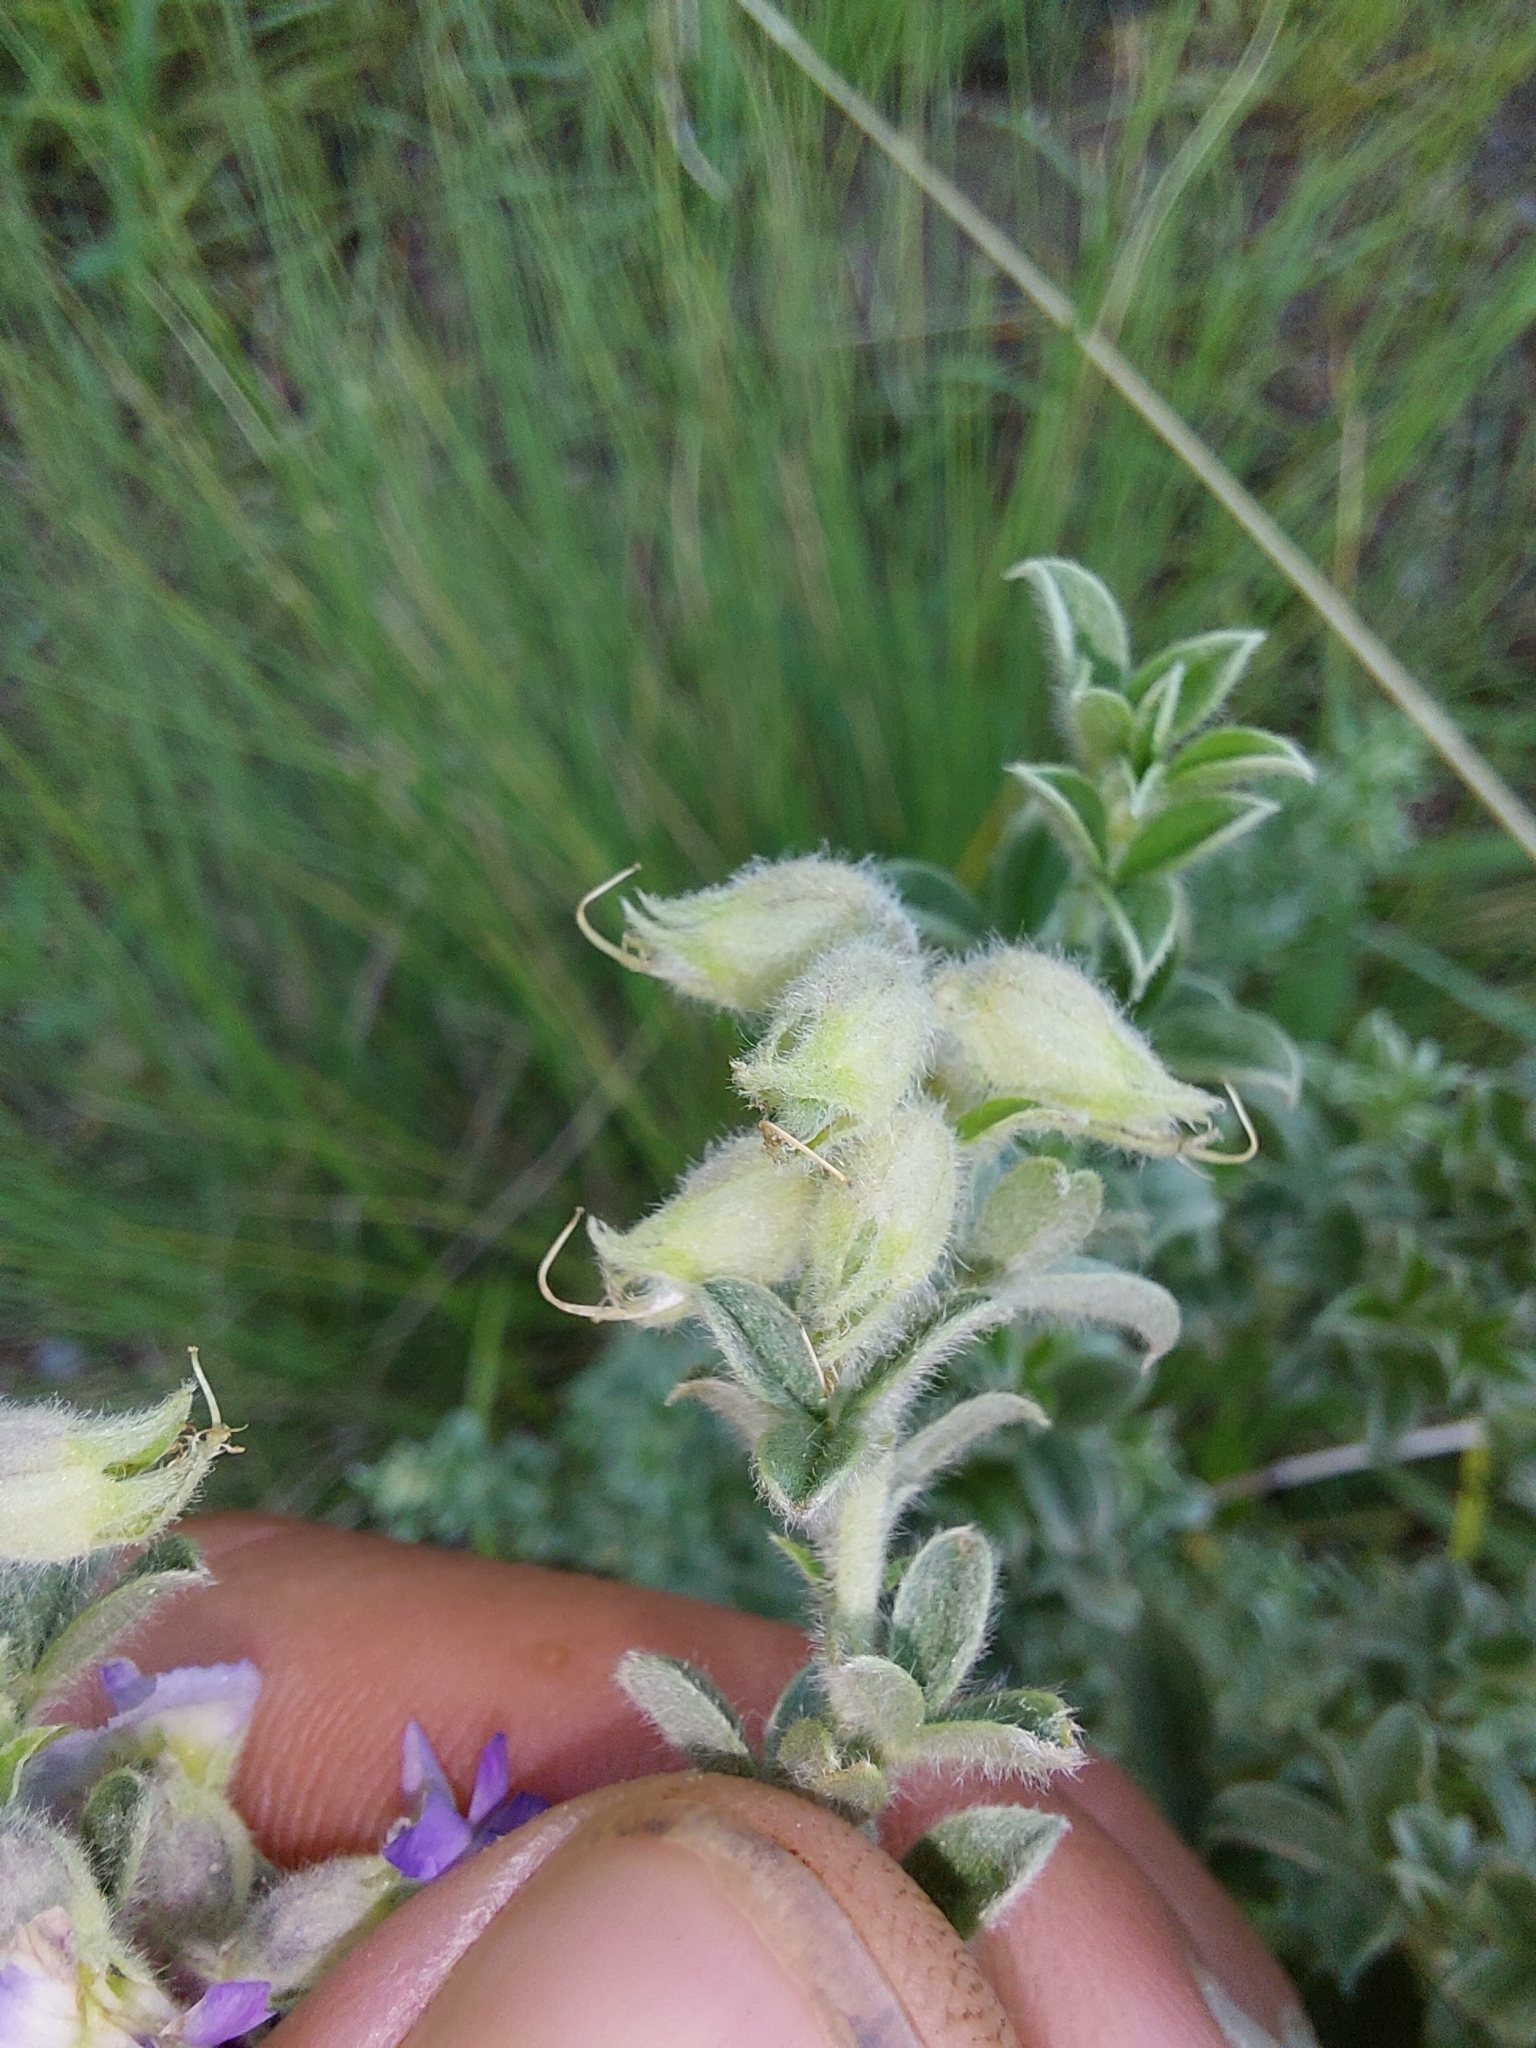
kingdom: Plantae
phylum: Tracheophyta
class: Magnoliopsida
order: Fabales
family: Fabaceae
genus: Lotononis
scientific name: Lotononis lotononoides
